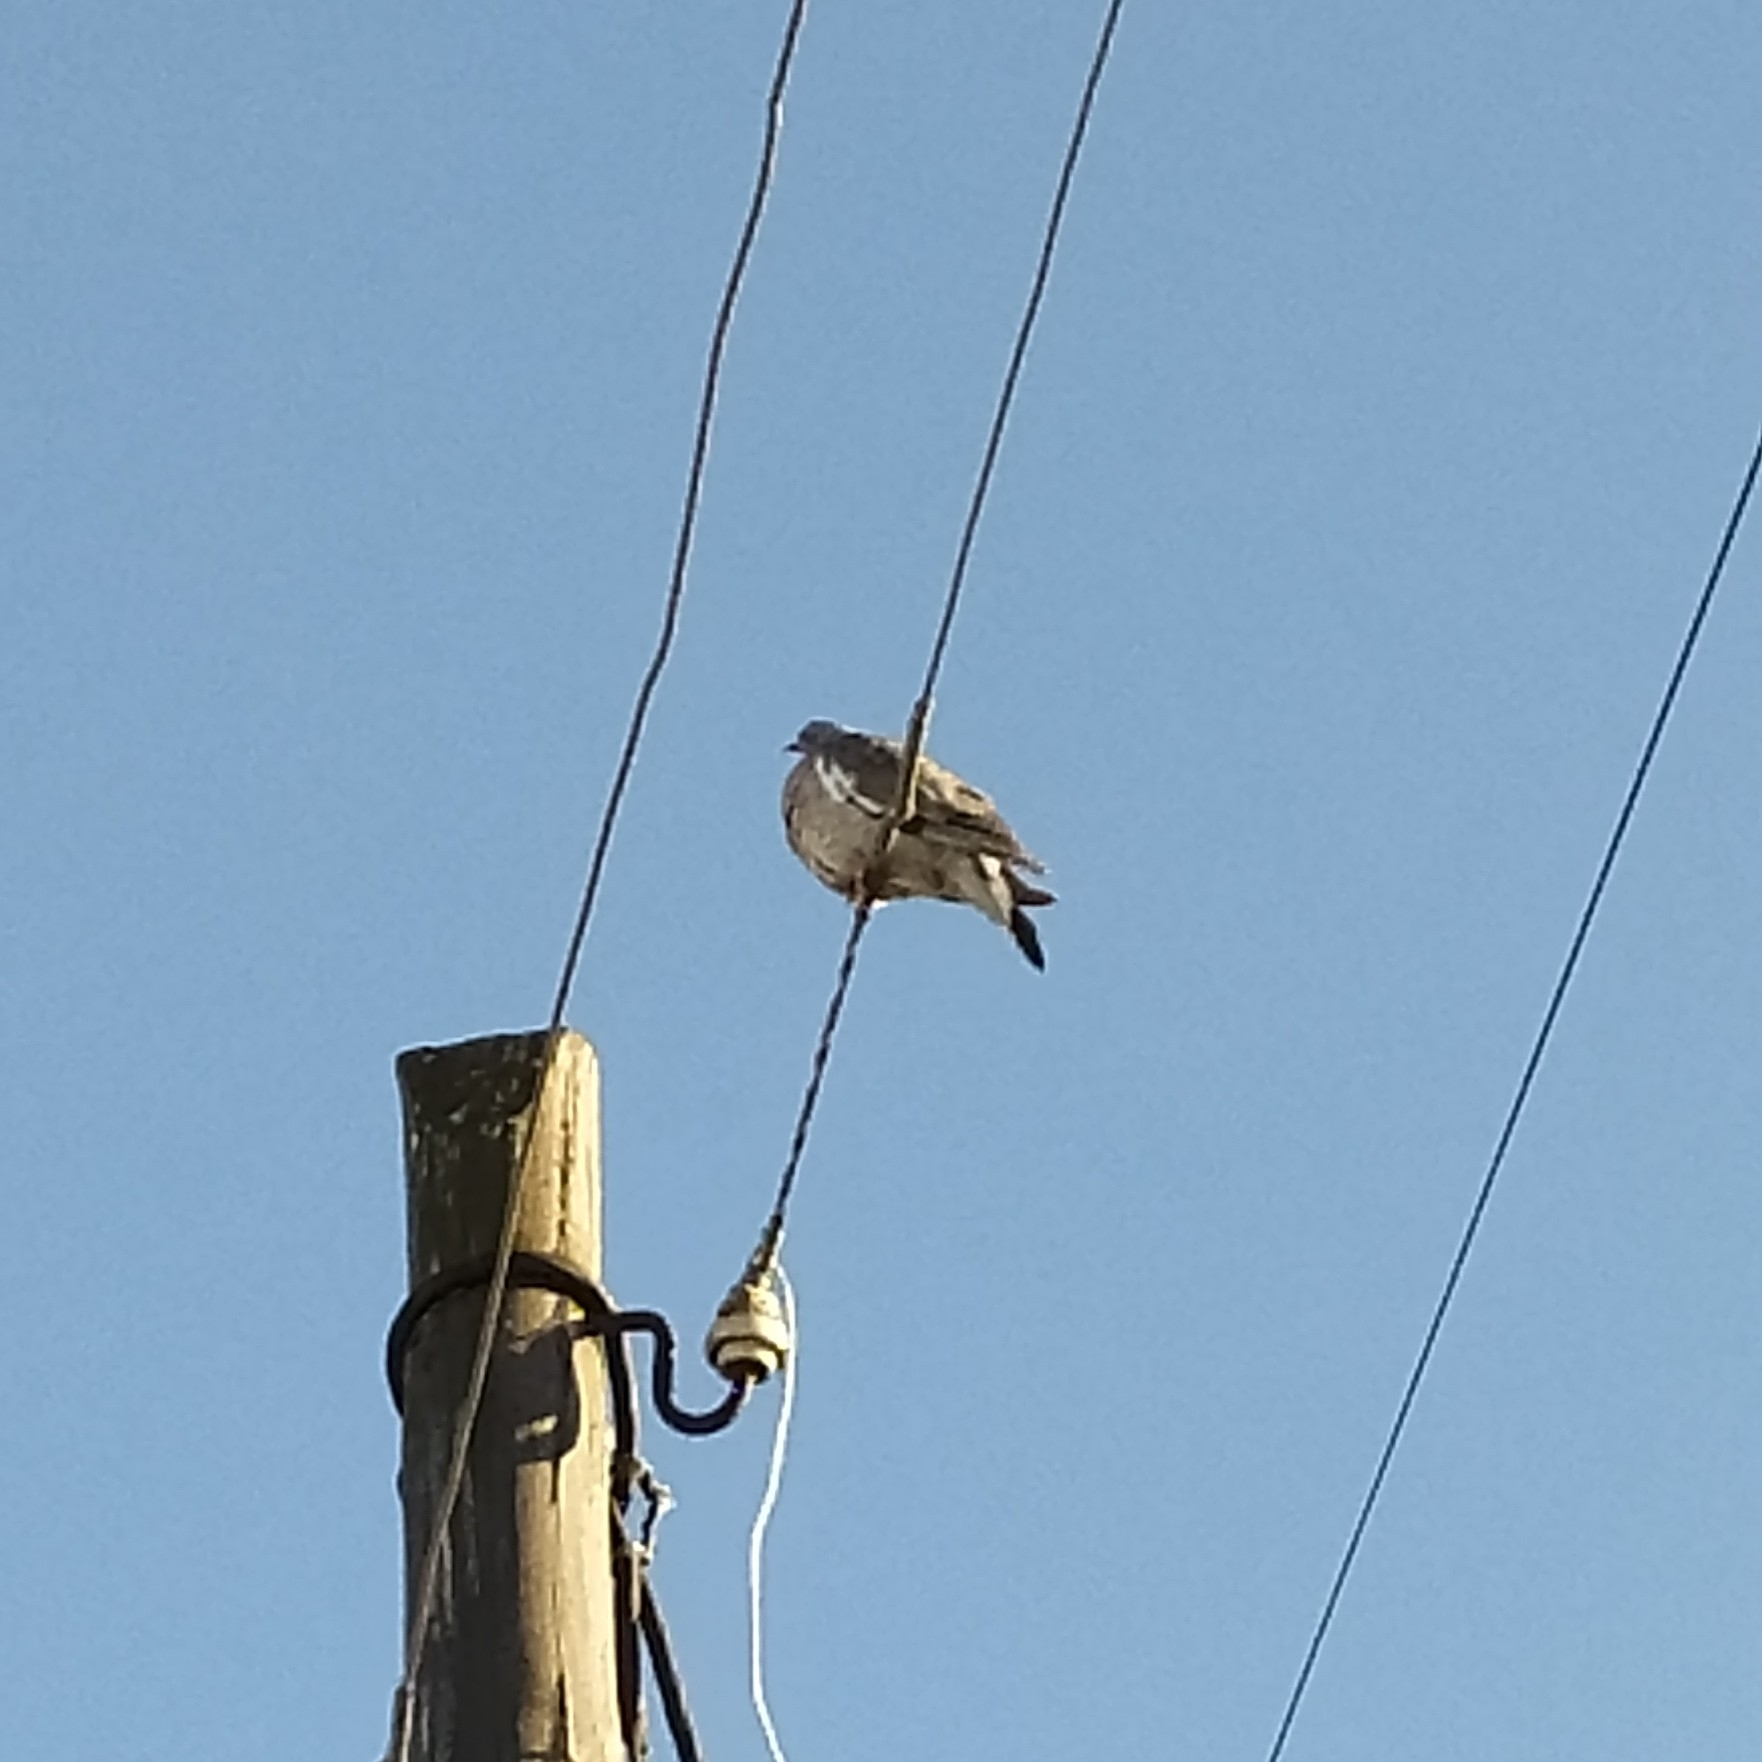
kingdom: Animalia
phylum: Chordata
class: Aves
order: Columbiformes
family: Columbidae
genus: Columba
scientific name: Columba palumbus
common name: Common wood pigeon
